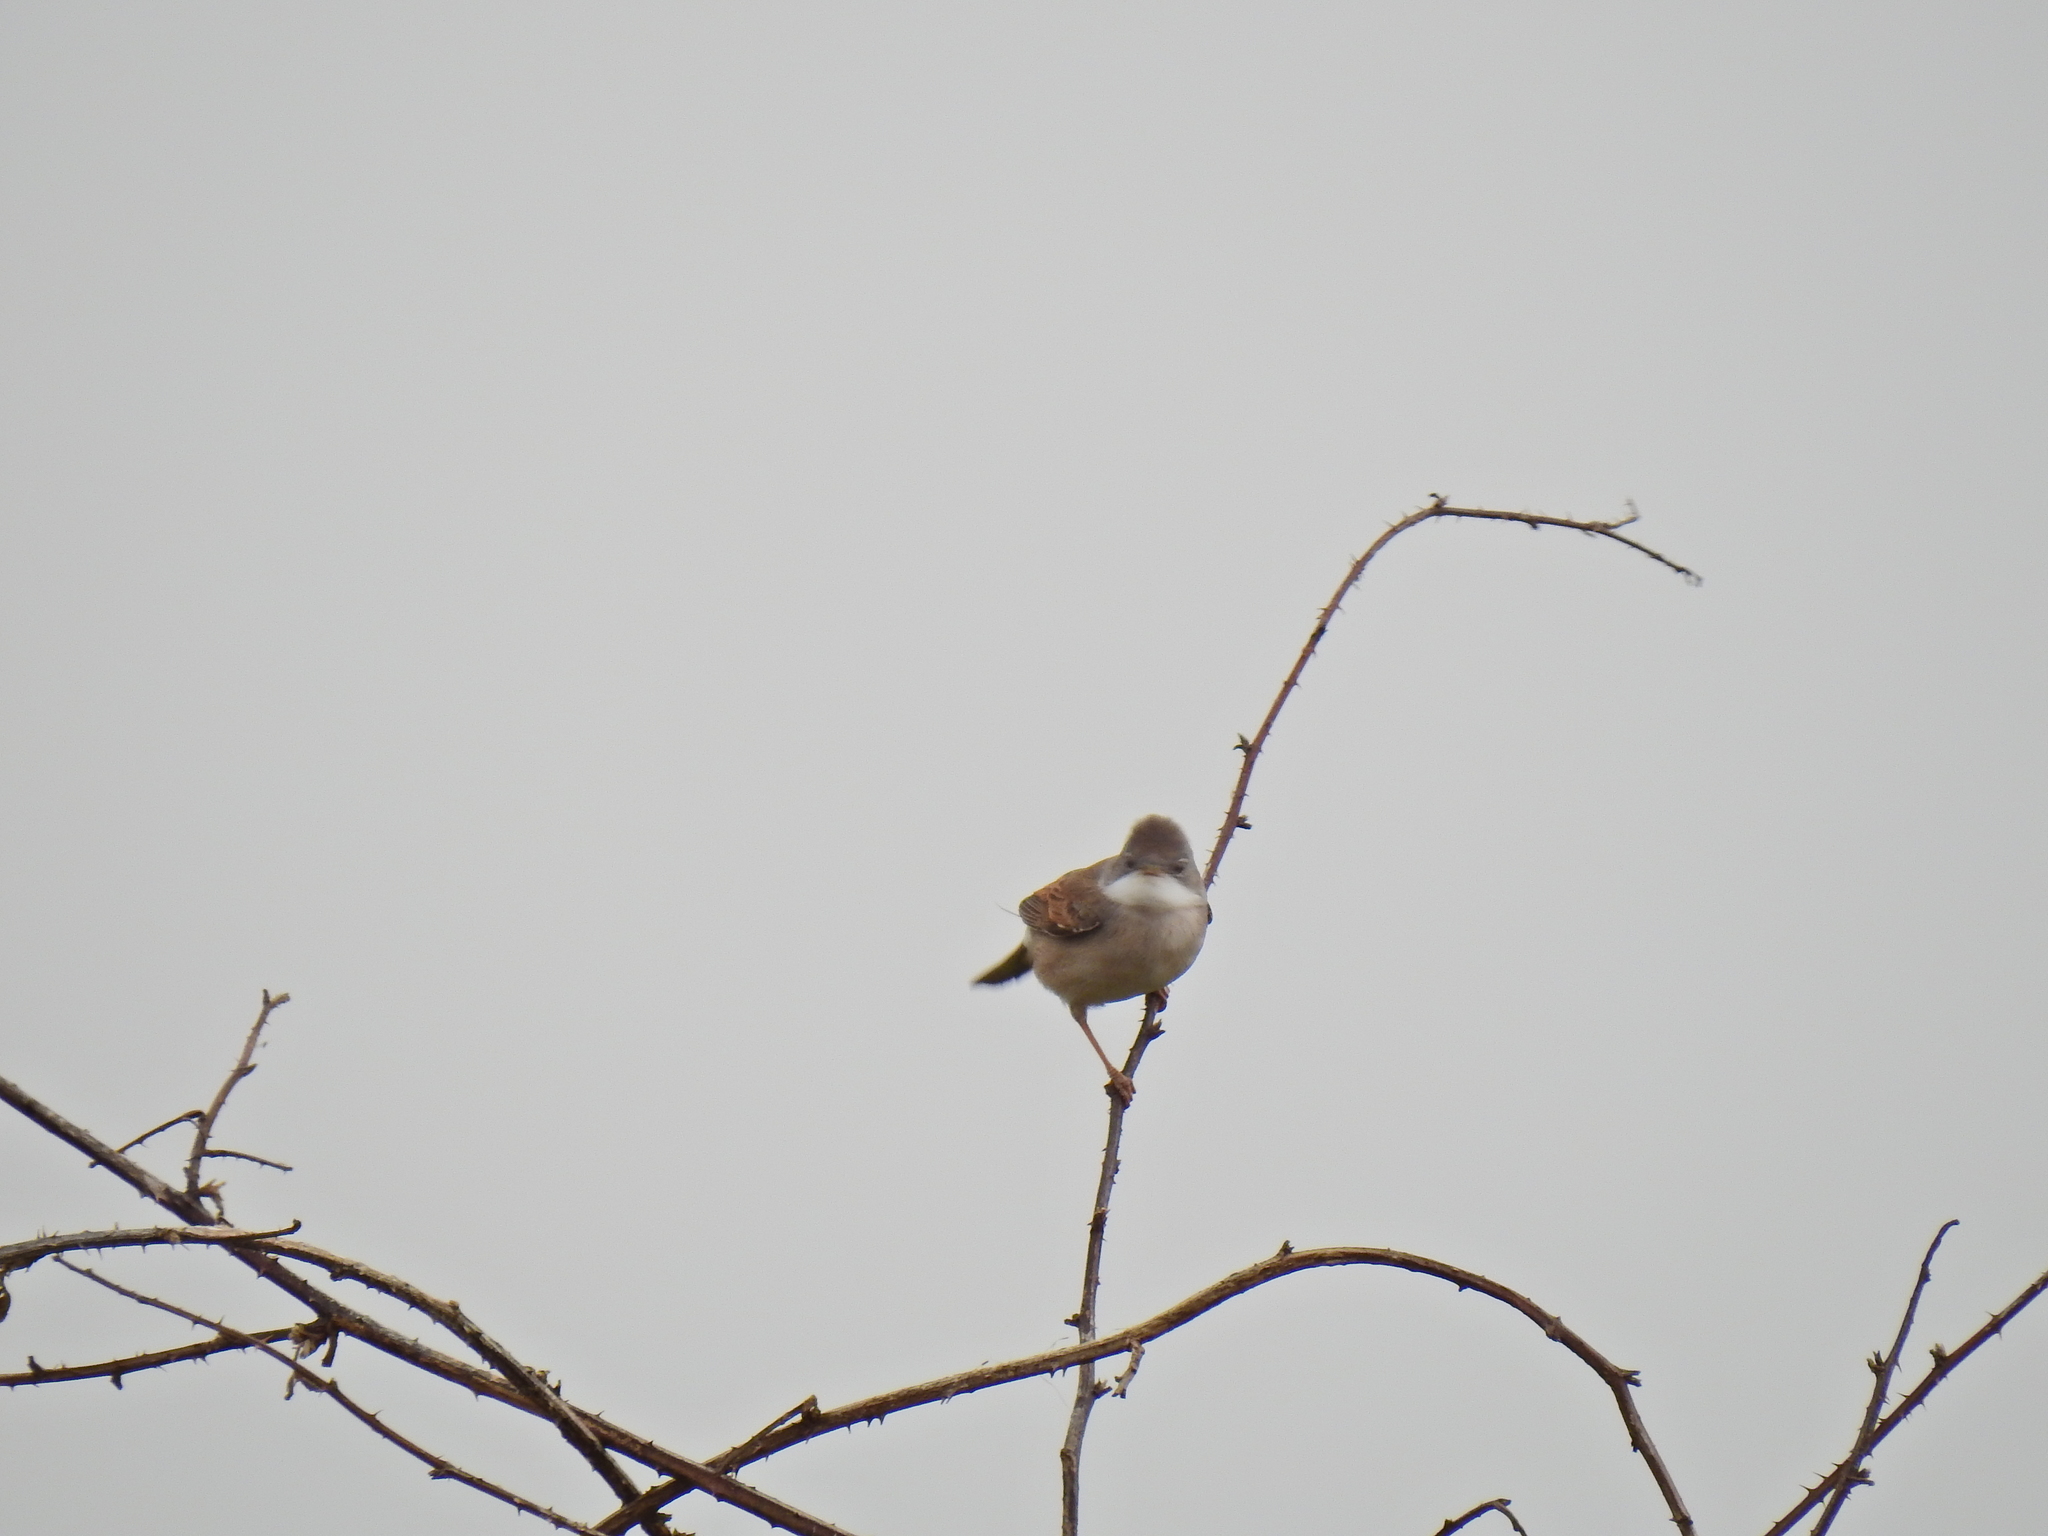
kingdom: Animalia
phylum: Chordata
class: Aves
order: Passeriformes
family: Sylviidae
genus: Sylvia
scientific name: Sylvia communis
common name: Common whitethroat
